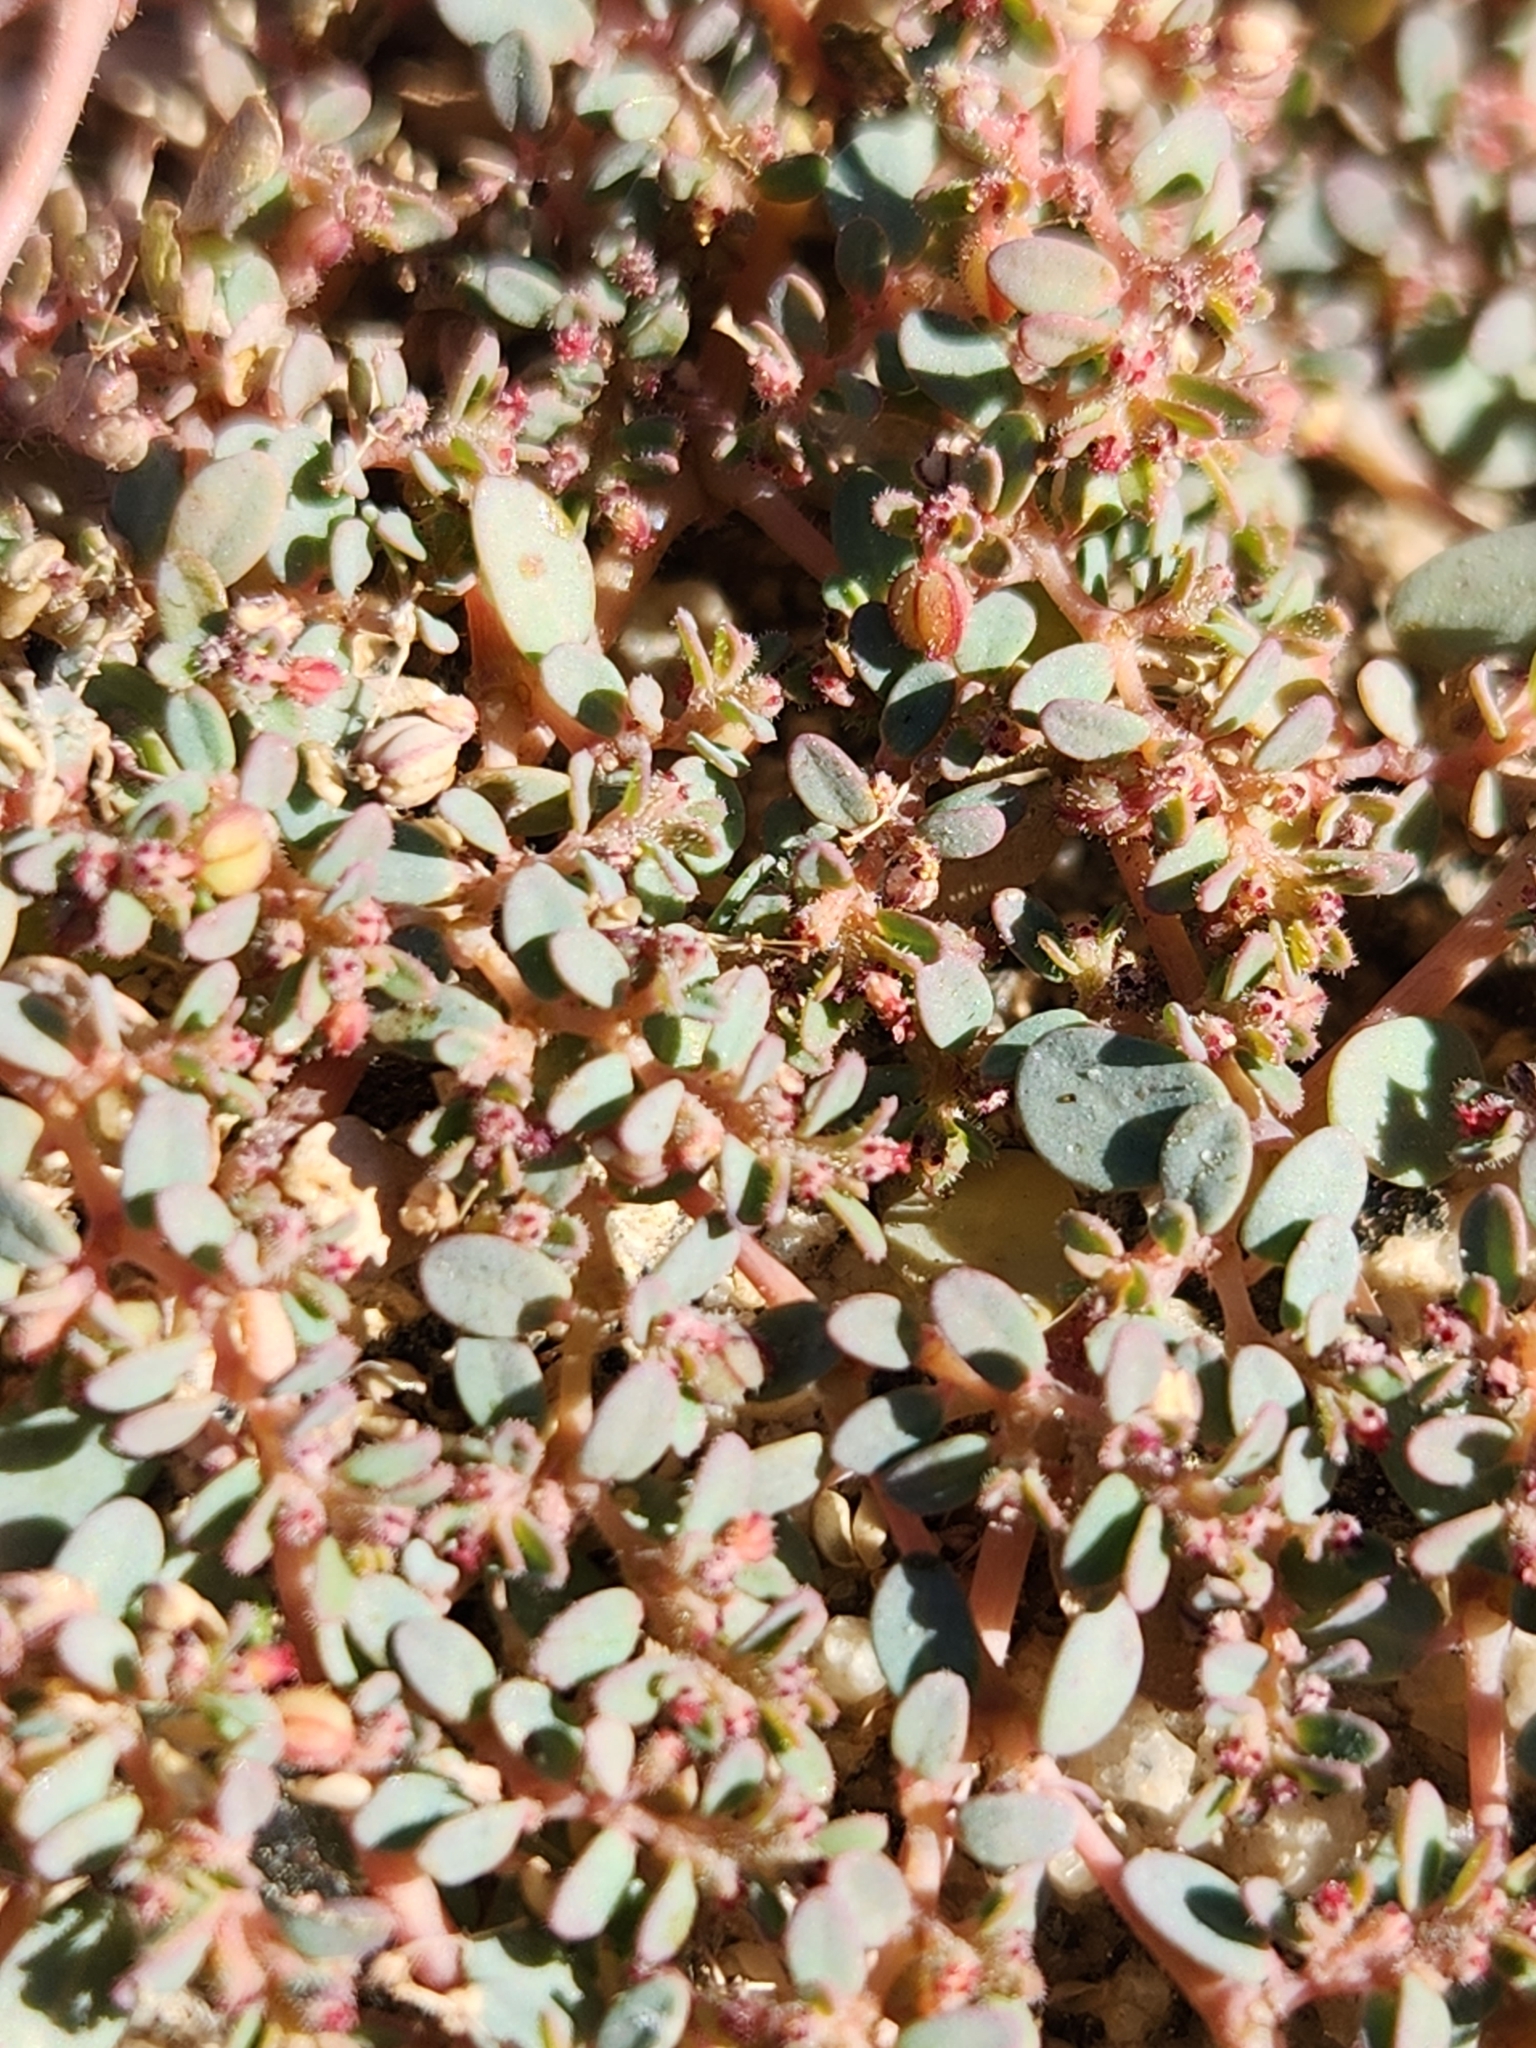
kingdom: Plantae
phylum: Tracheophyta
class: Magnoliopsida
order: Malpighiales
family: Euphorbiaceae
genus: Euphorbia
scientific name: Euphorbia micromera
